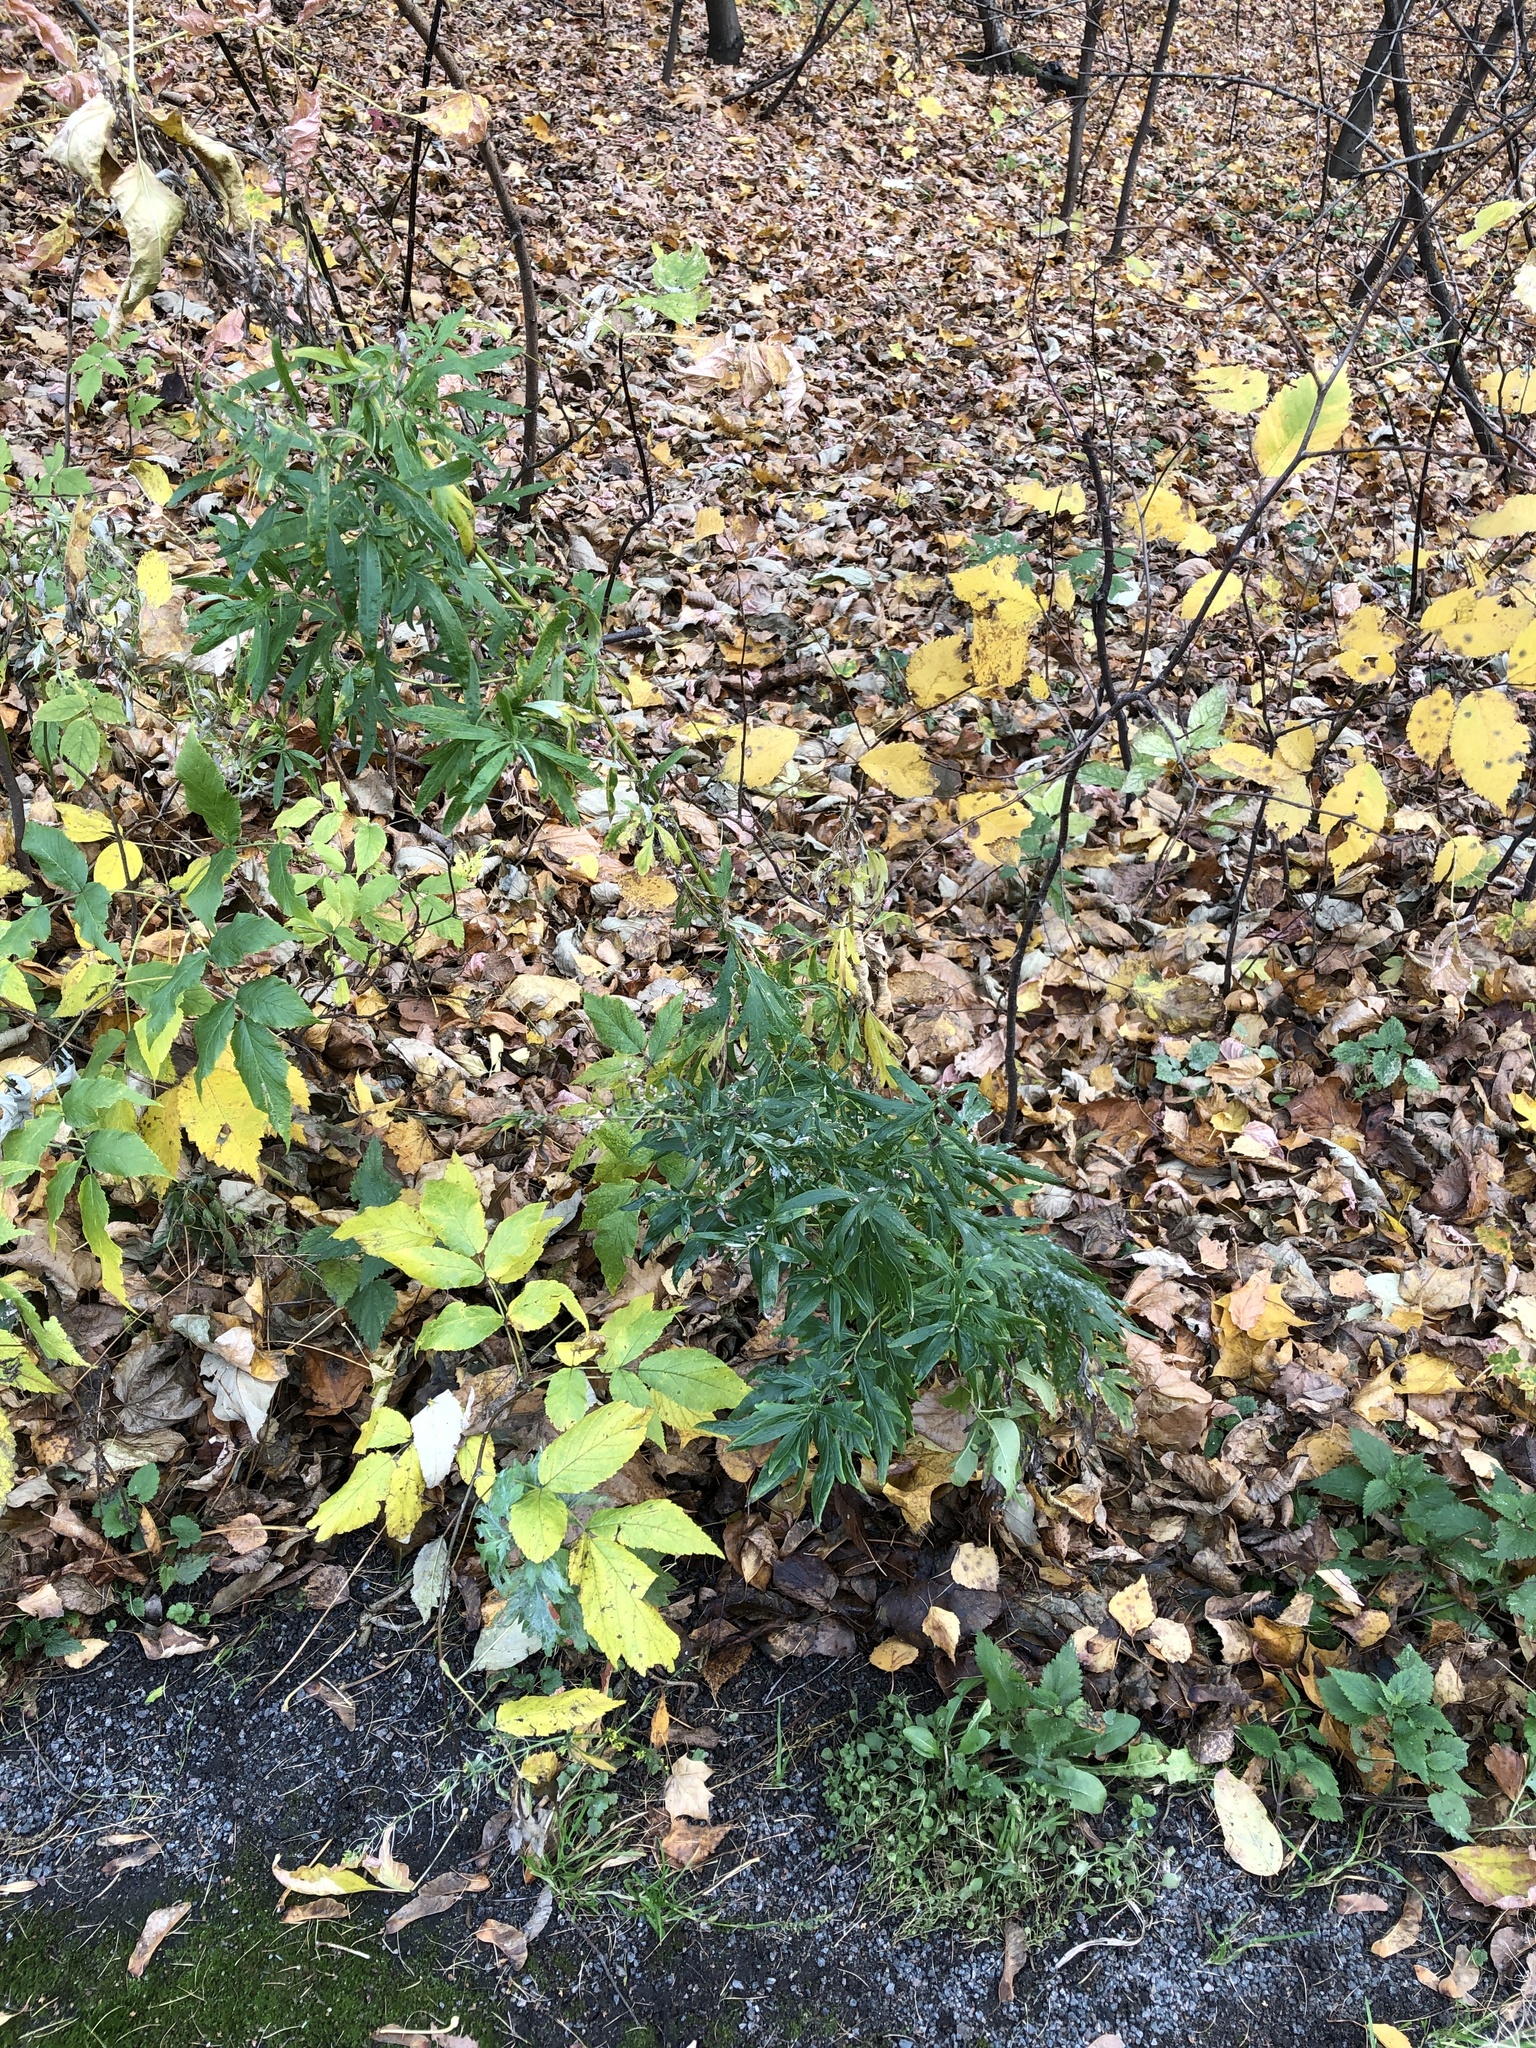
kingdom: Plantae
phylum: Tracheophyta
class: Magnoliopsida
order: Asterales
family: Asteraceae
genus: Artemisia
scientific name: Artemisia vulgaris
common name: Mugwort
